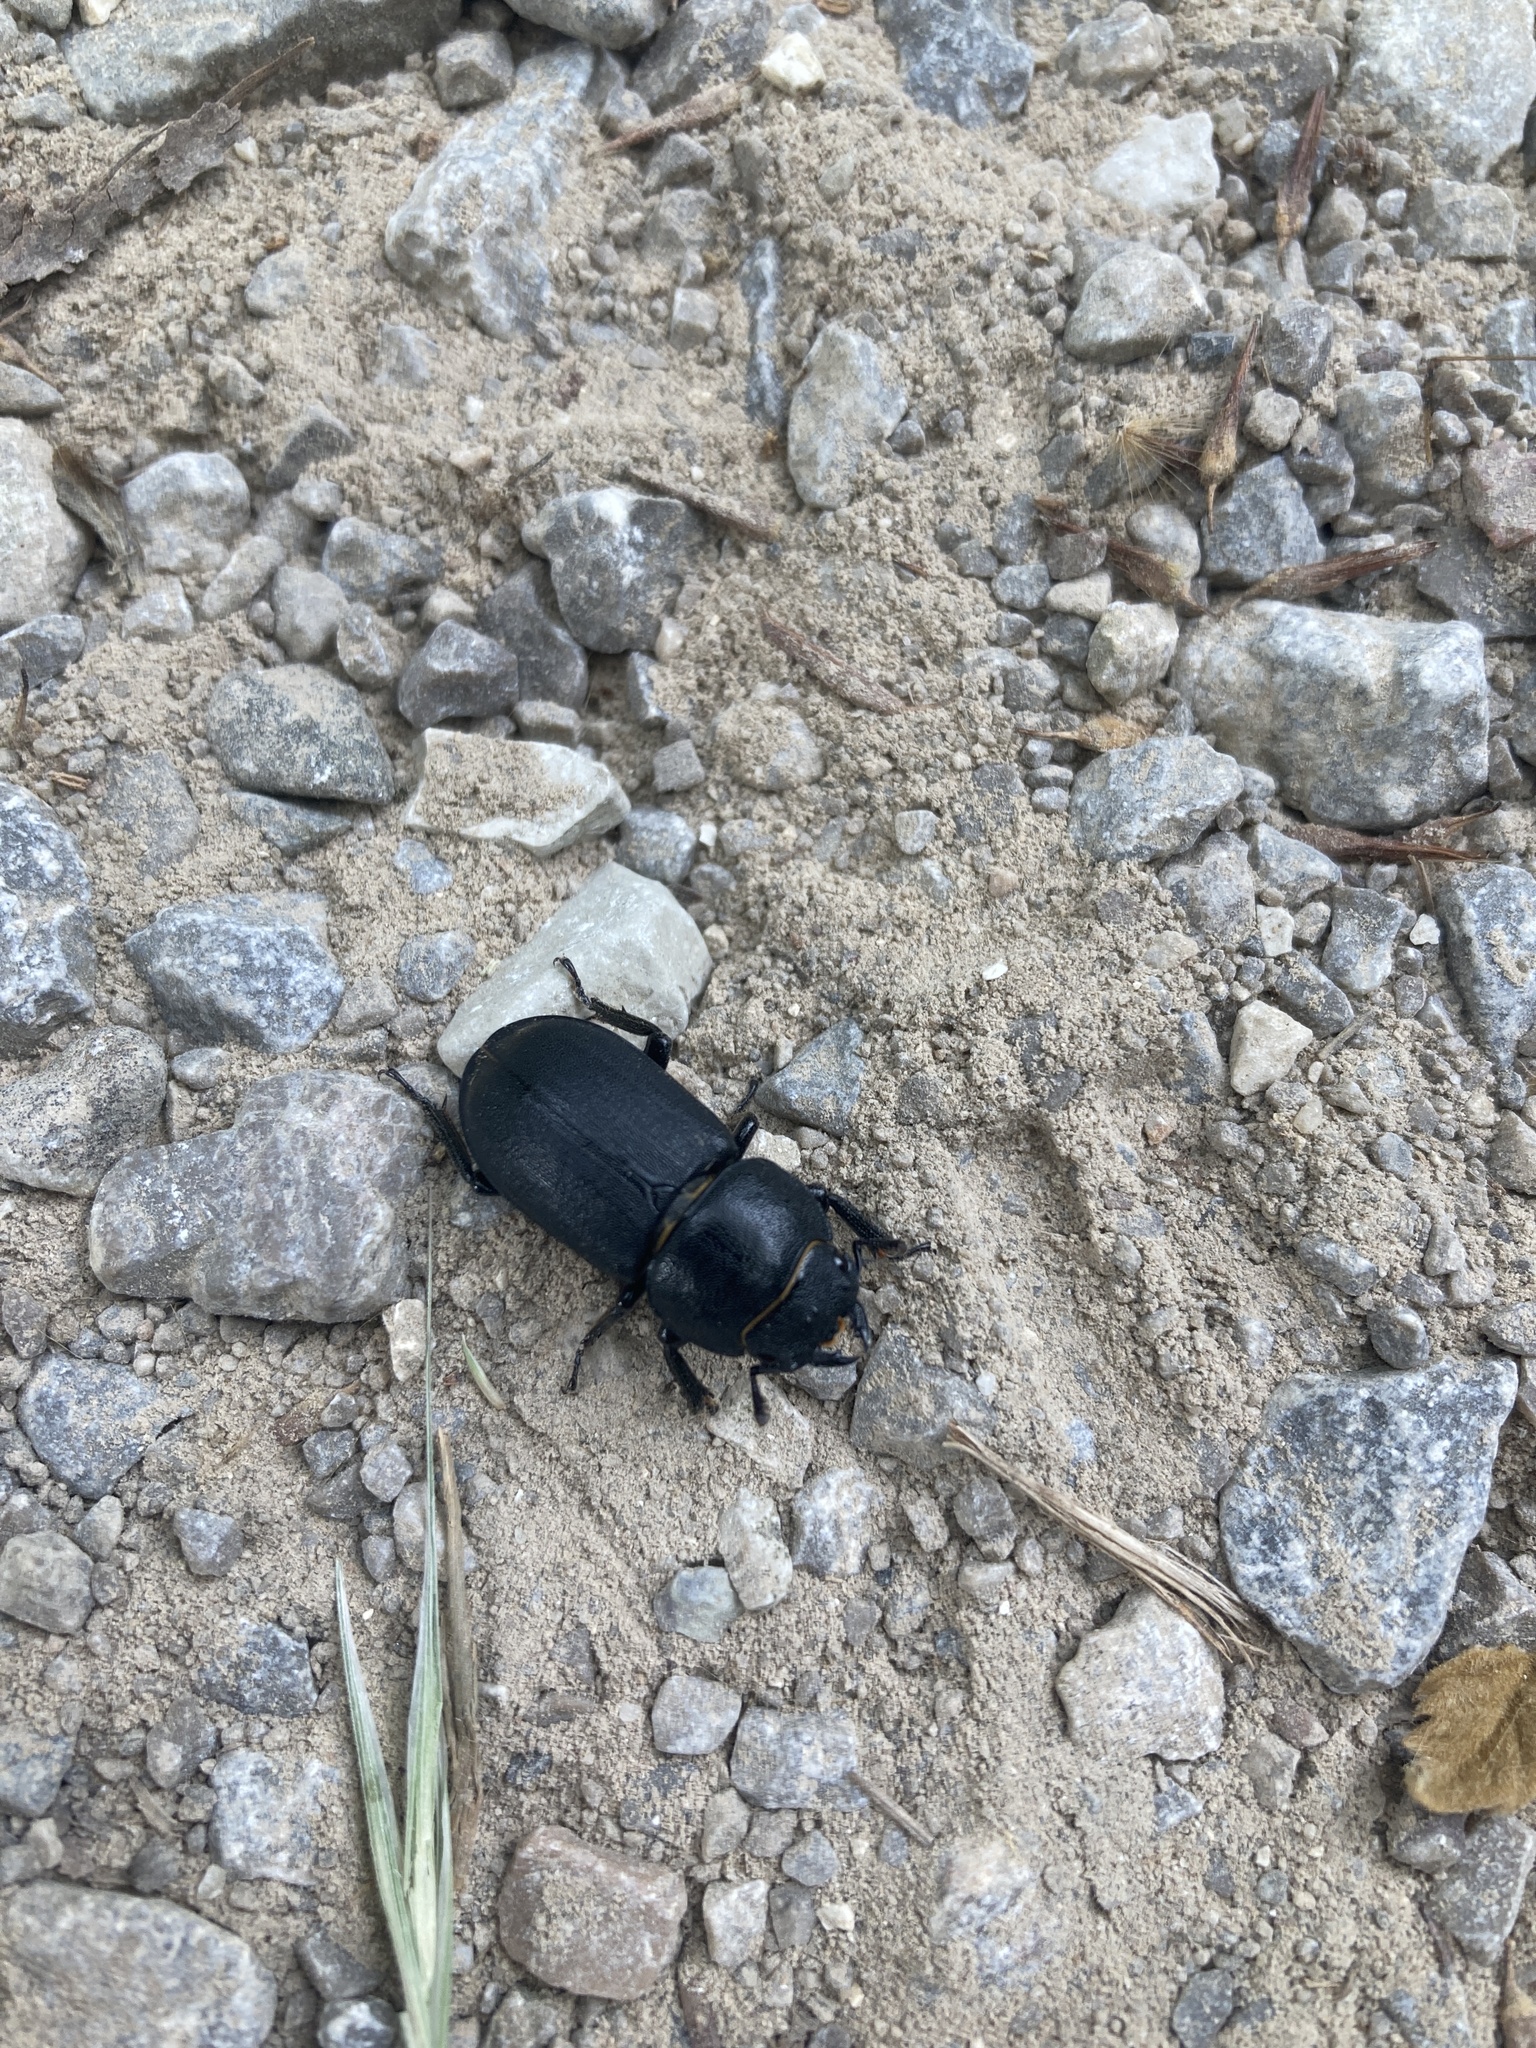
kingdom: Animalia
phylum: Arthropoda
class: Insecta
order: Coleoptera
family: Lucanidae
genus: Dorcus
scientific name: Dorcus parallelipipedus
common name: Lesser stag beetle
